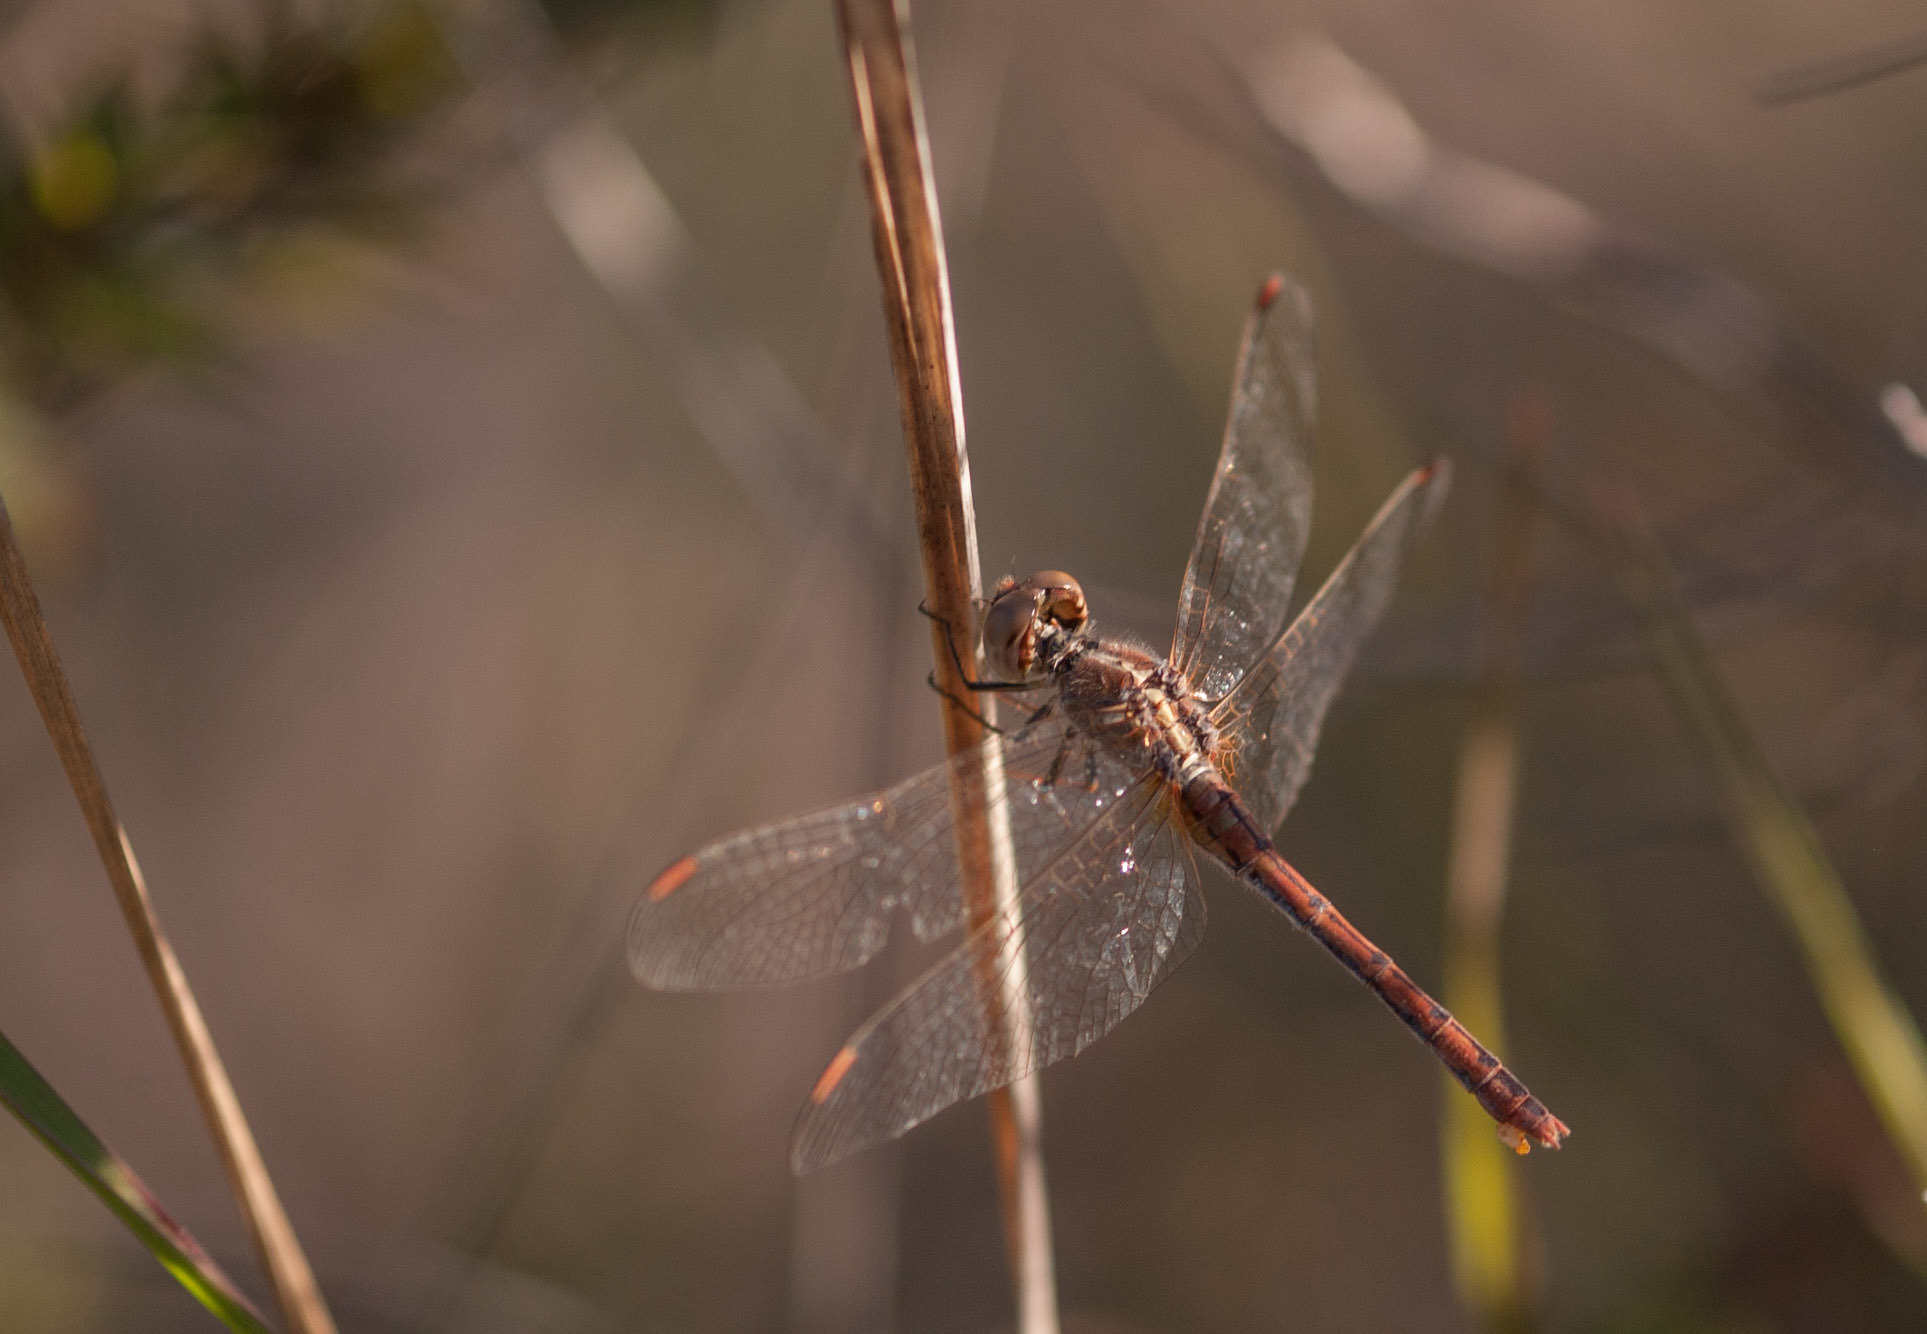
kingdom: Animalia
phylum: Arthropoda
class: Insecta
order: Odonata
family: Libellulidae
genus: Diplacodes
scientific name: Diplacodes bipunctata
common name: Red percher dragonfly
